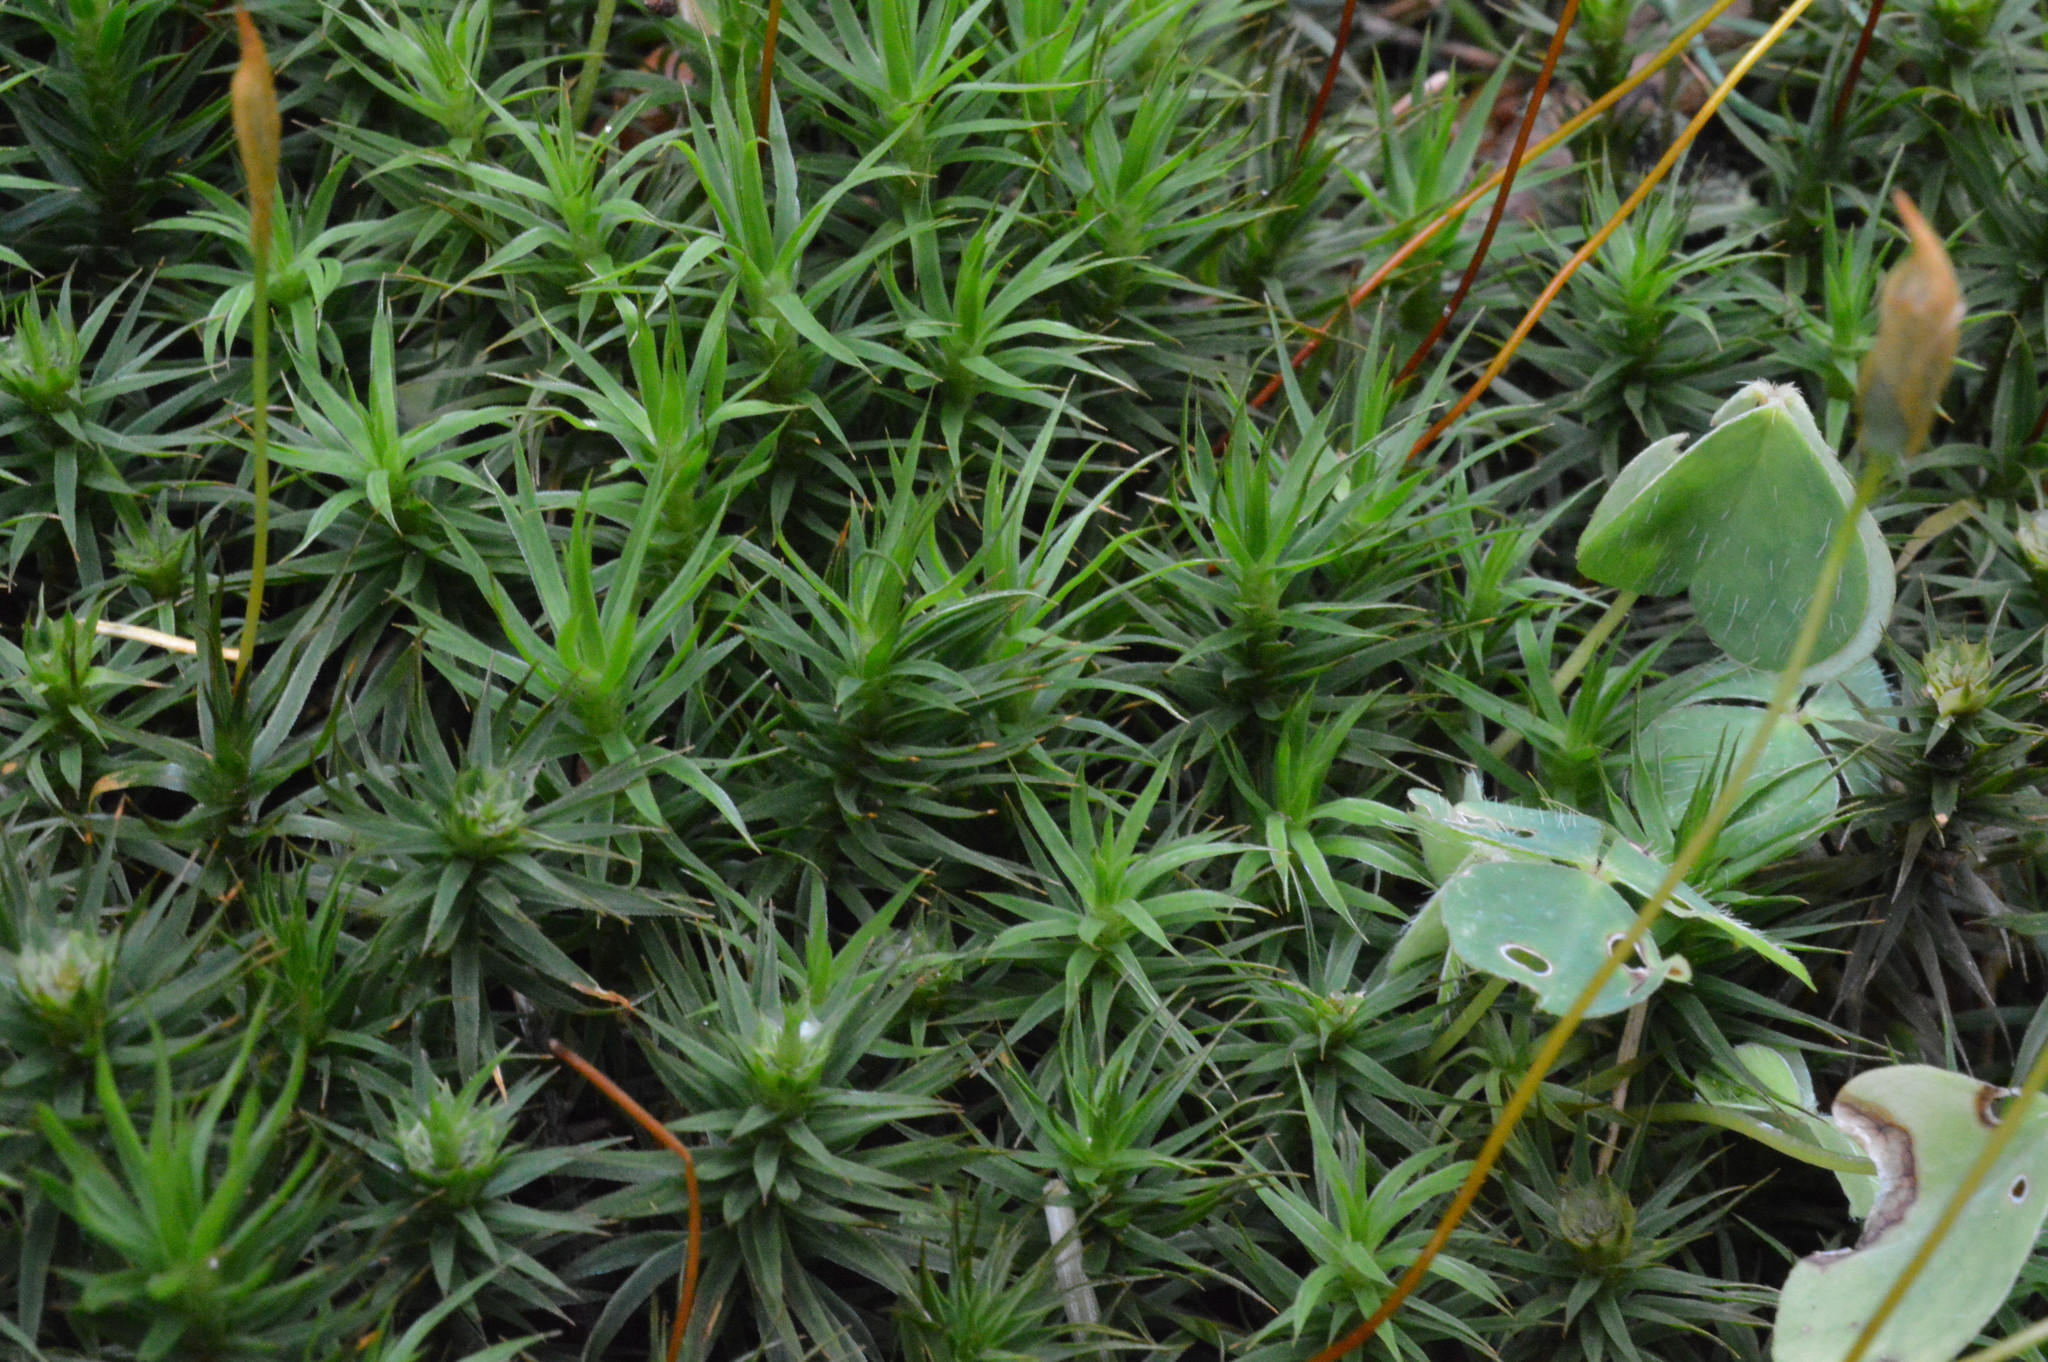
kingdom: Plantae
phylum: Bryophyta
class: Polytrichopsida
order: Polytrichales
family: Polytrichaceae
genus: Polytrichum
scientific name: Polytrichum juniperinum
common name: Juniper haircap moss
